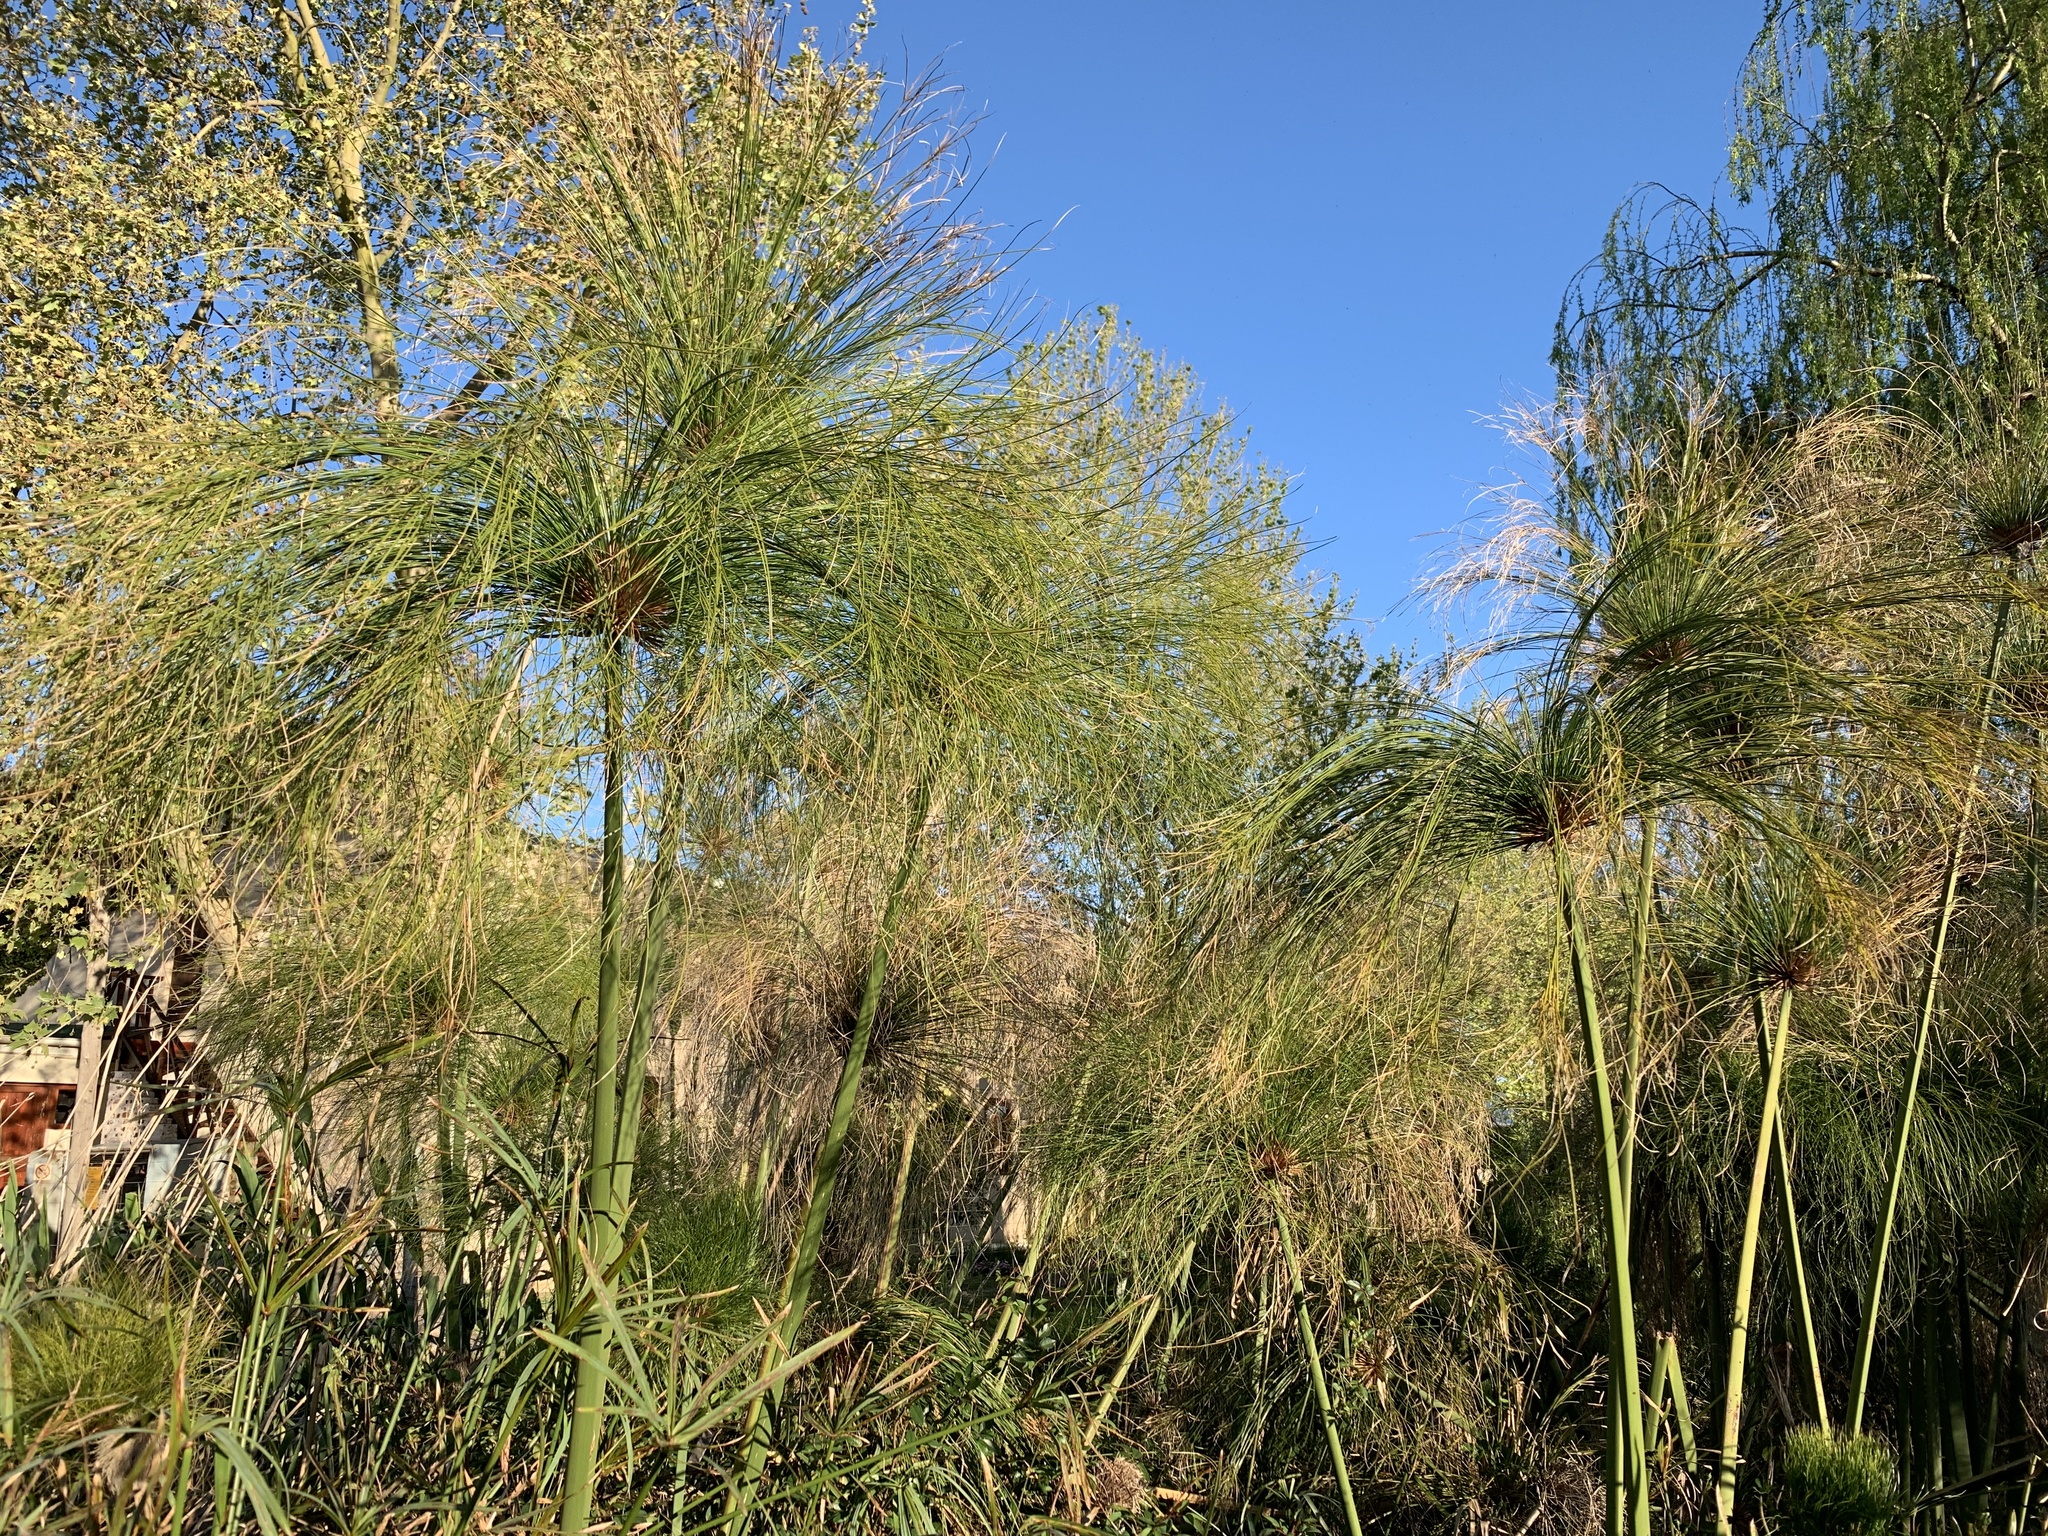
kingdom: Plantae
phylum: Tracheophyta
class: Liliopsida
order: Poales
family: Cyperaceae
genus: Cyperus
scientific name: Cyperus papyrus
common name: Papyrus
